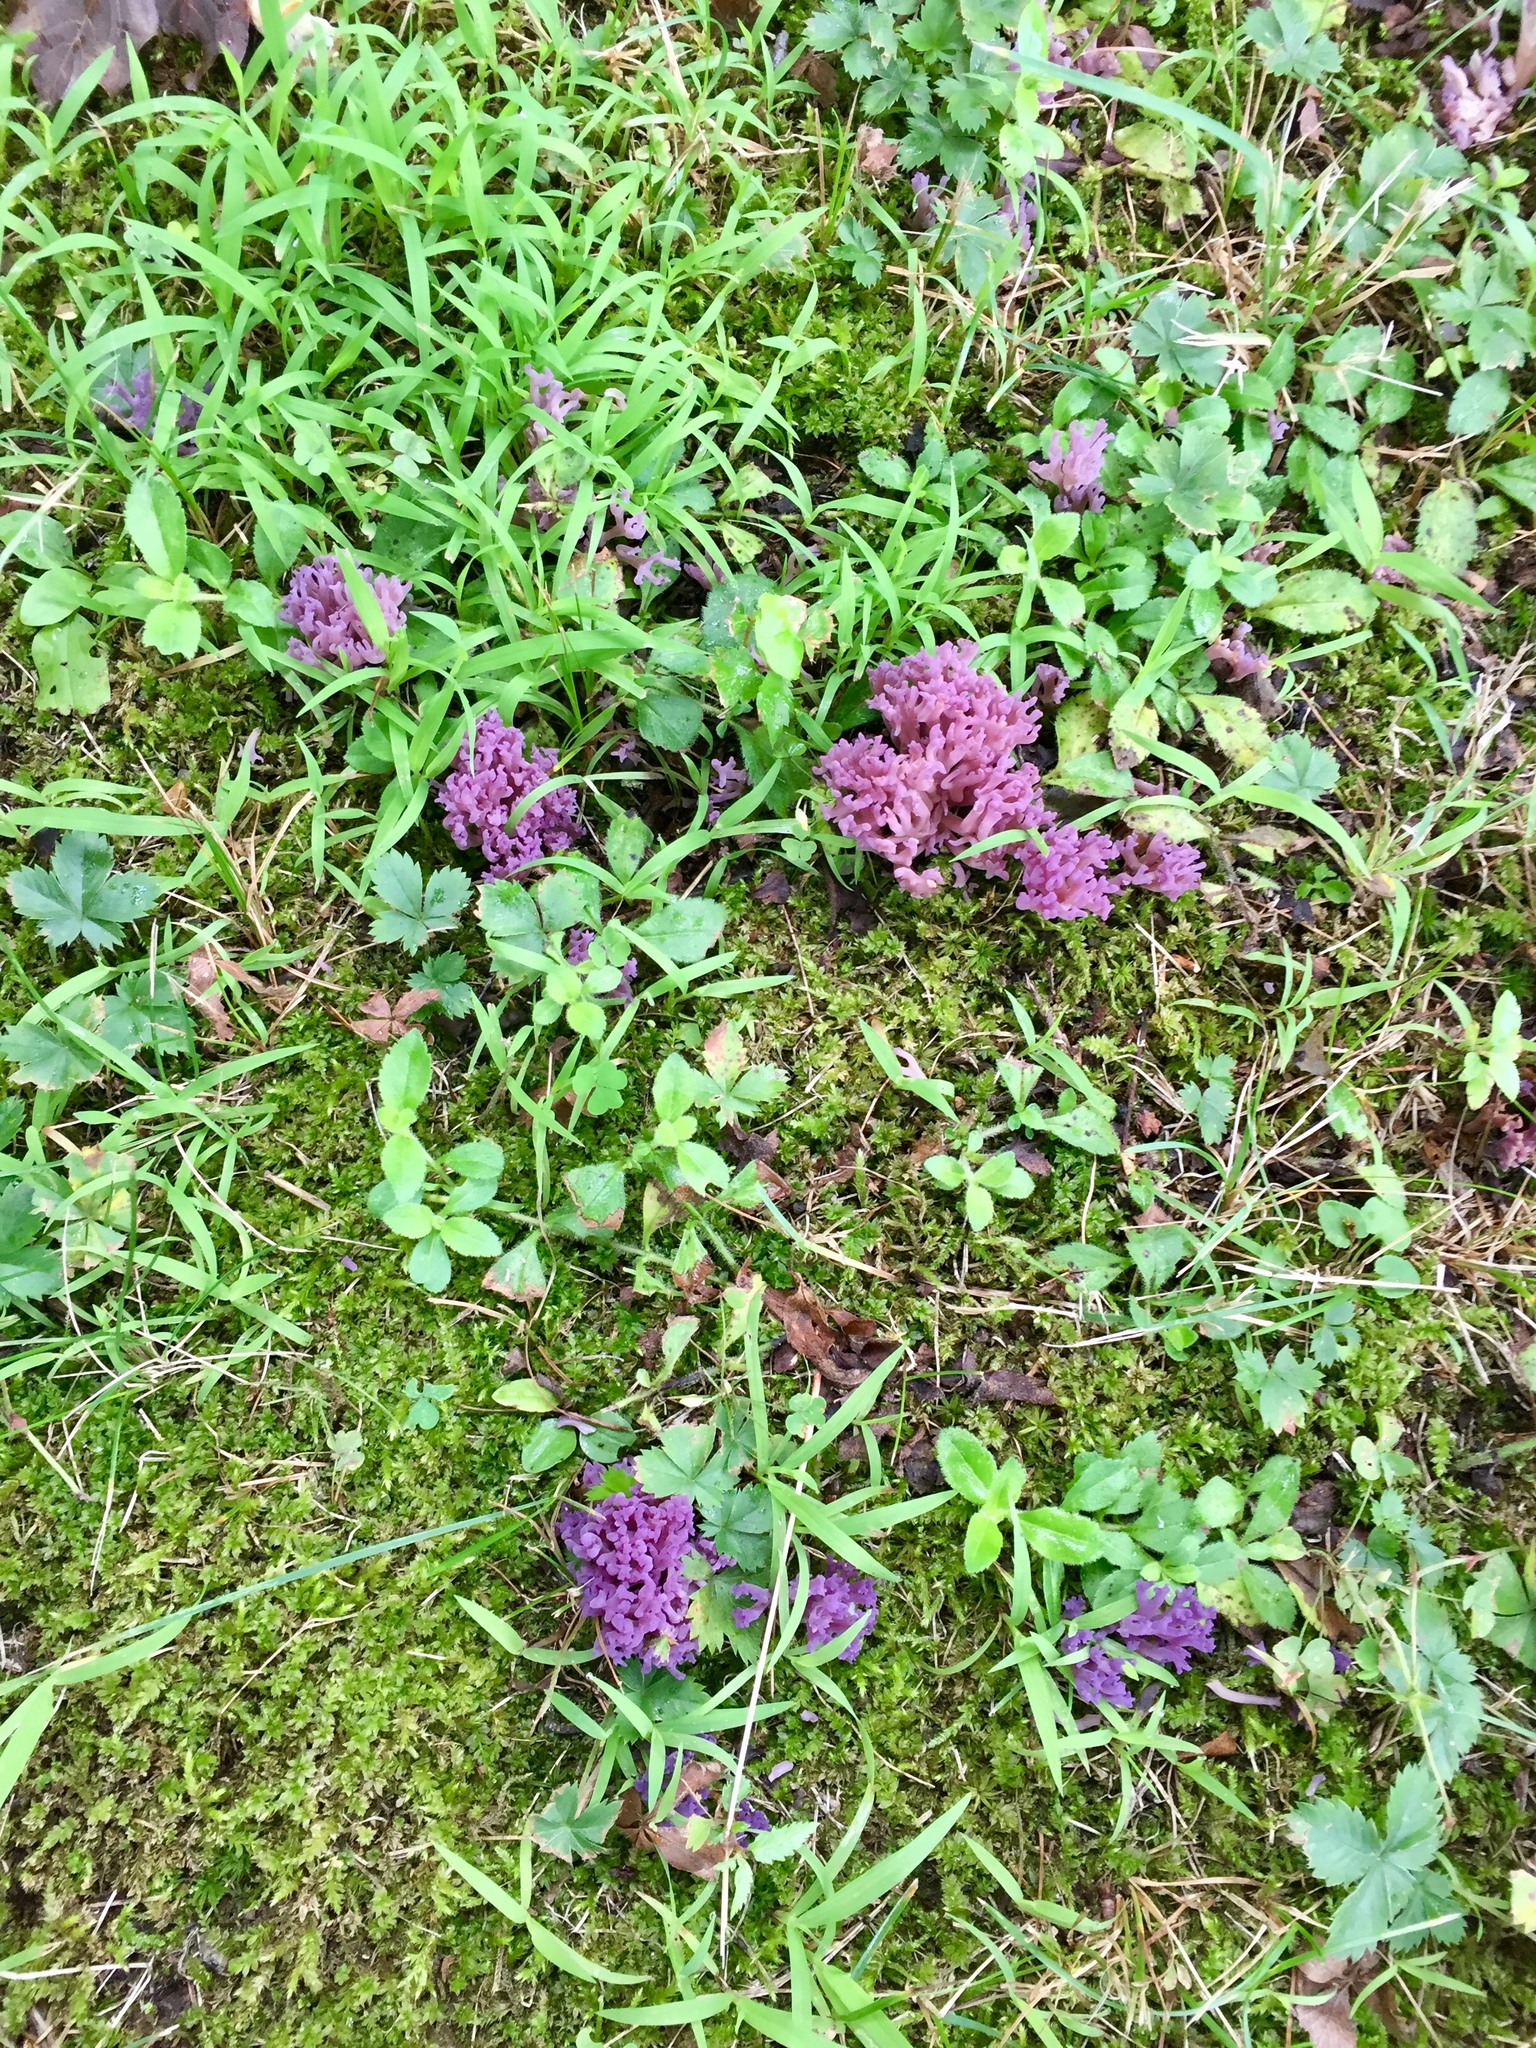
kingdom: Fungi
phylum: Basidiomycota
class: Agaricomycetes
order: Agaricales
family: Clavariaceae
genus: Clavaria
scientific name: Clavaria zollingeri
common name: Violet coral
